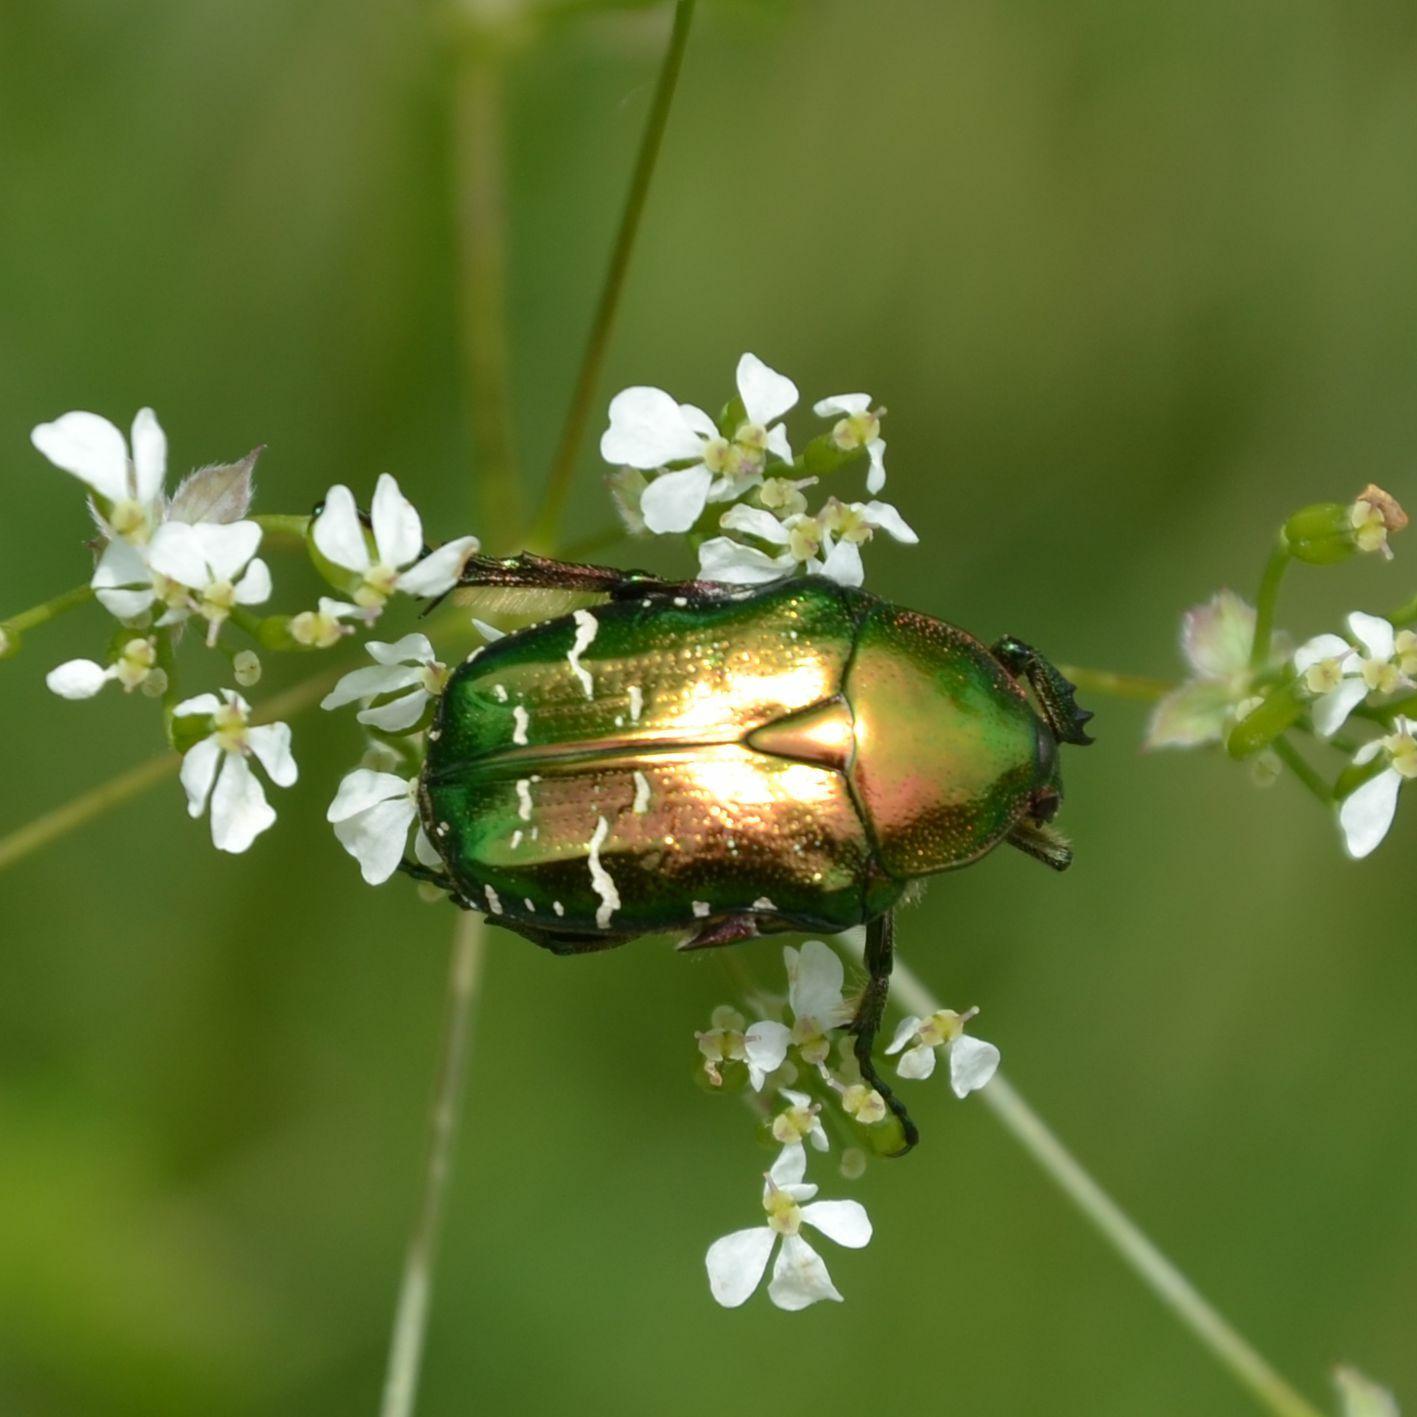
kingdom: Animalia
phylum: Arthropoda
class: Insecta
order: Coleoptera
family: Scarabaeidae
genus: Cetonia
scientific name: Cetonia aurata
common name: Rose chafer
